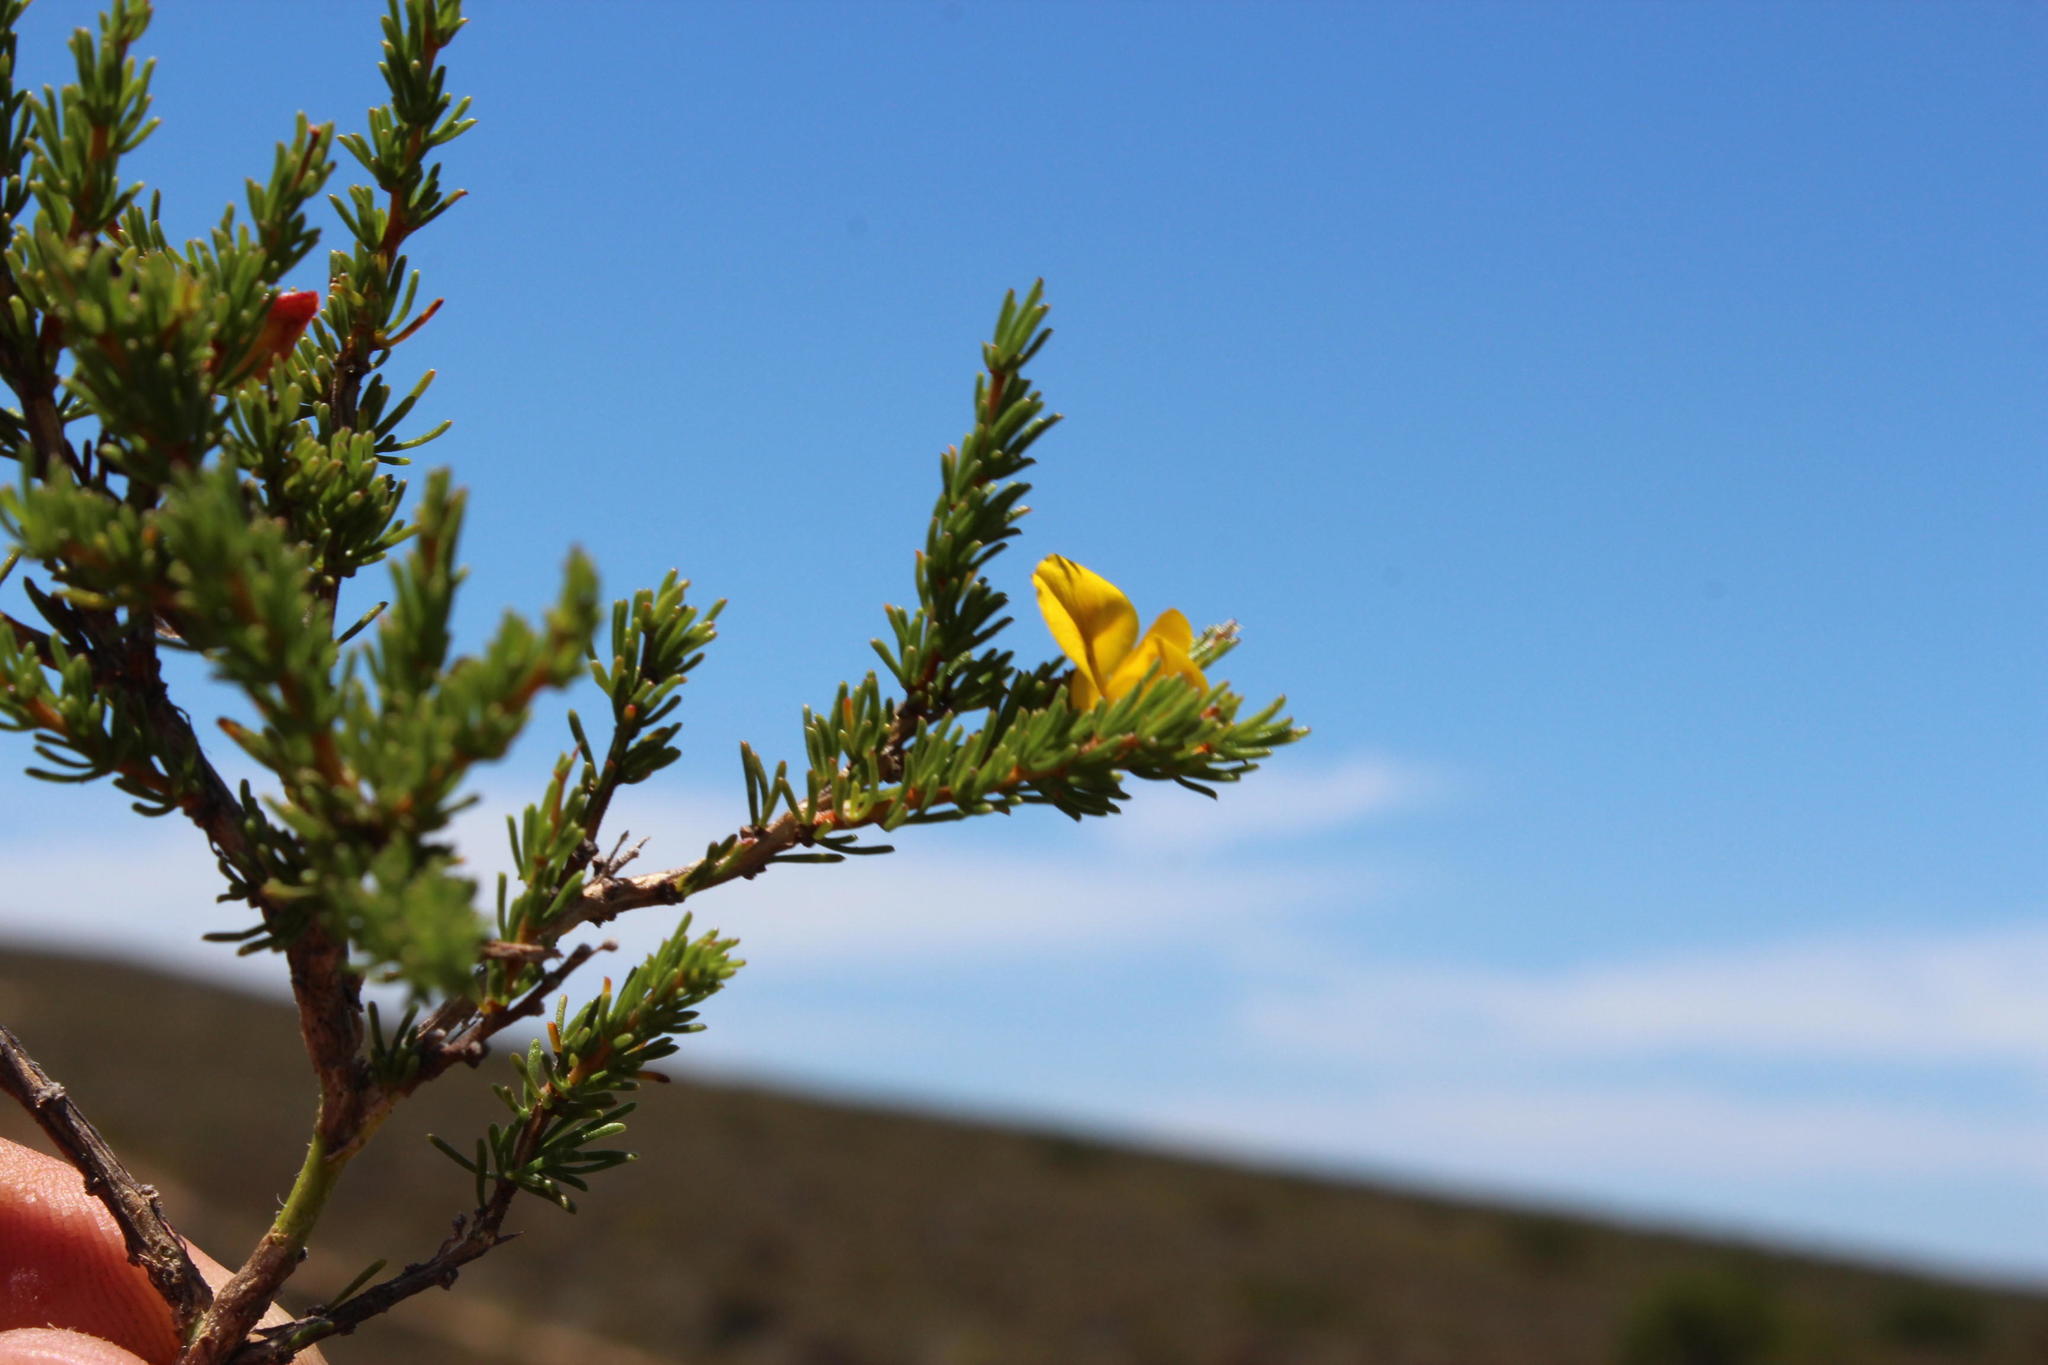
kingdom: Plantae
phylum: Tracheophyta
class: Magnoliopsida
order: Fabales
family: Fabaceae
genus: Aspalathus
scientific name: Aspalathus arida
